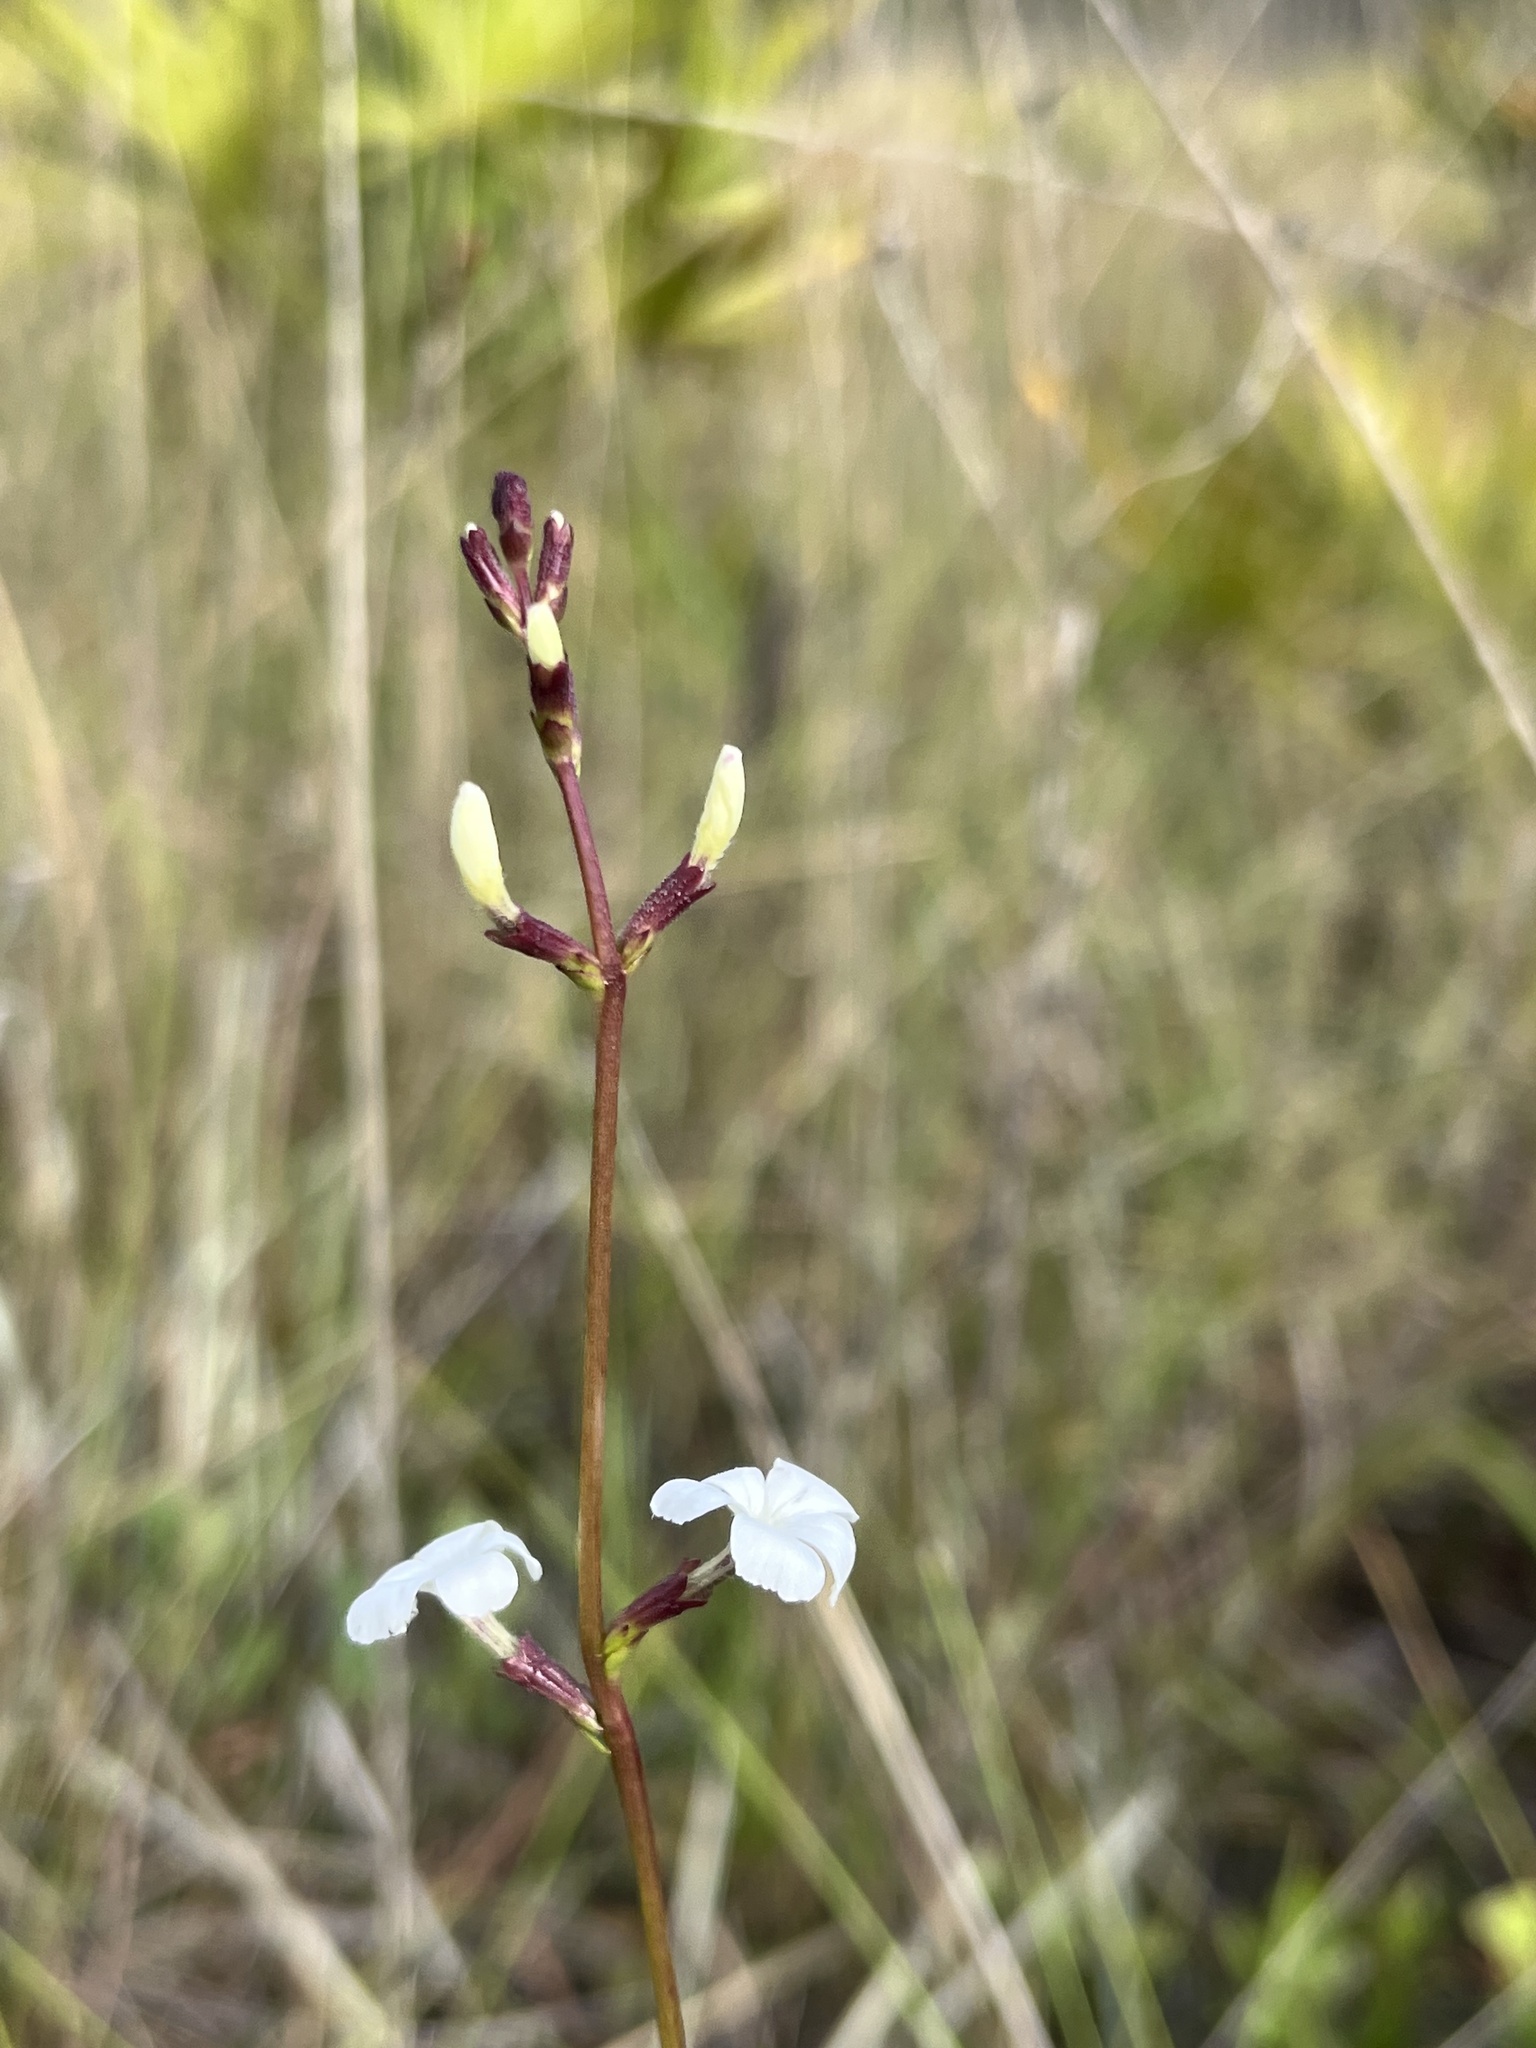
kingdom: Plantae
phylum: Tracheophyta
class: Magnoliopsida
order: Lamiales
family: Orobanchaceae
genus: Buchnera
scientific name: Buchnera floridana
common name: Florida bluehearts
